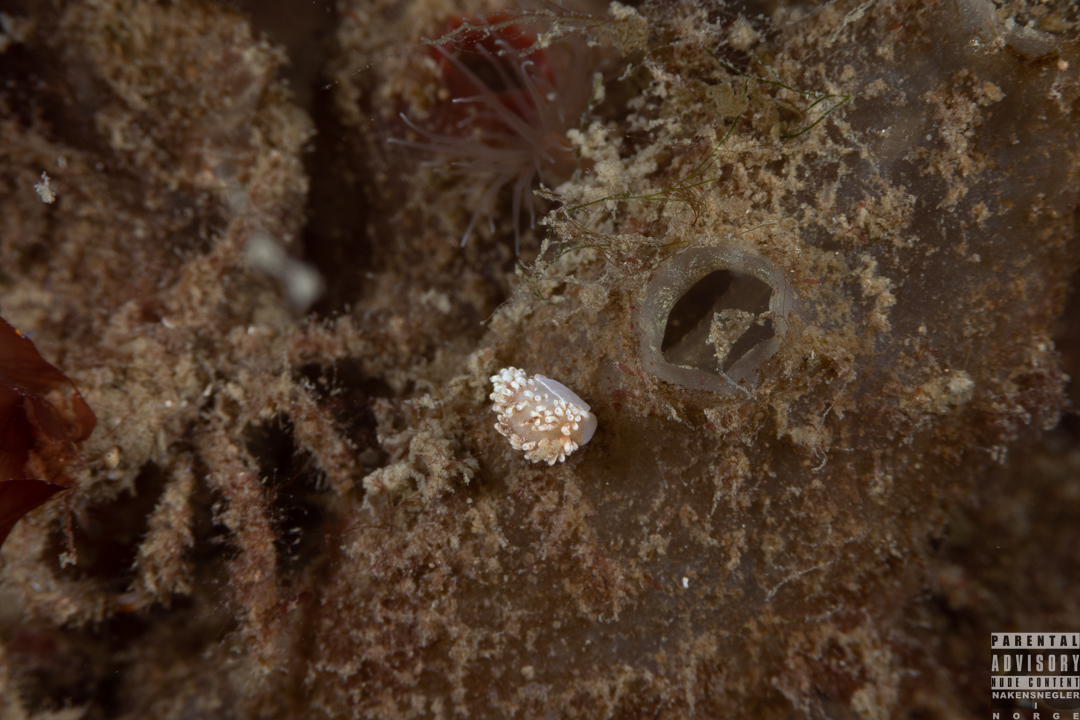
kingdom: Animalia
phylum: Mollusca
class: Gastropoda
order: Nudibranchia
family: Aeolidiidae
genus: Aeolidiella
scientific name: Aeolidiella glauca
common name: Orange-brown aeolid
